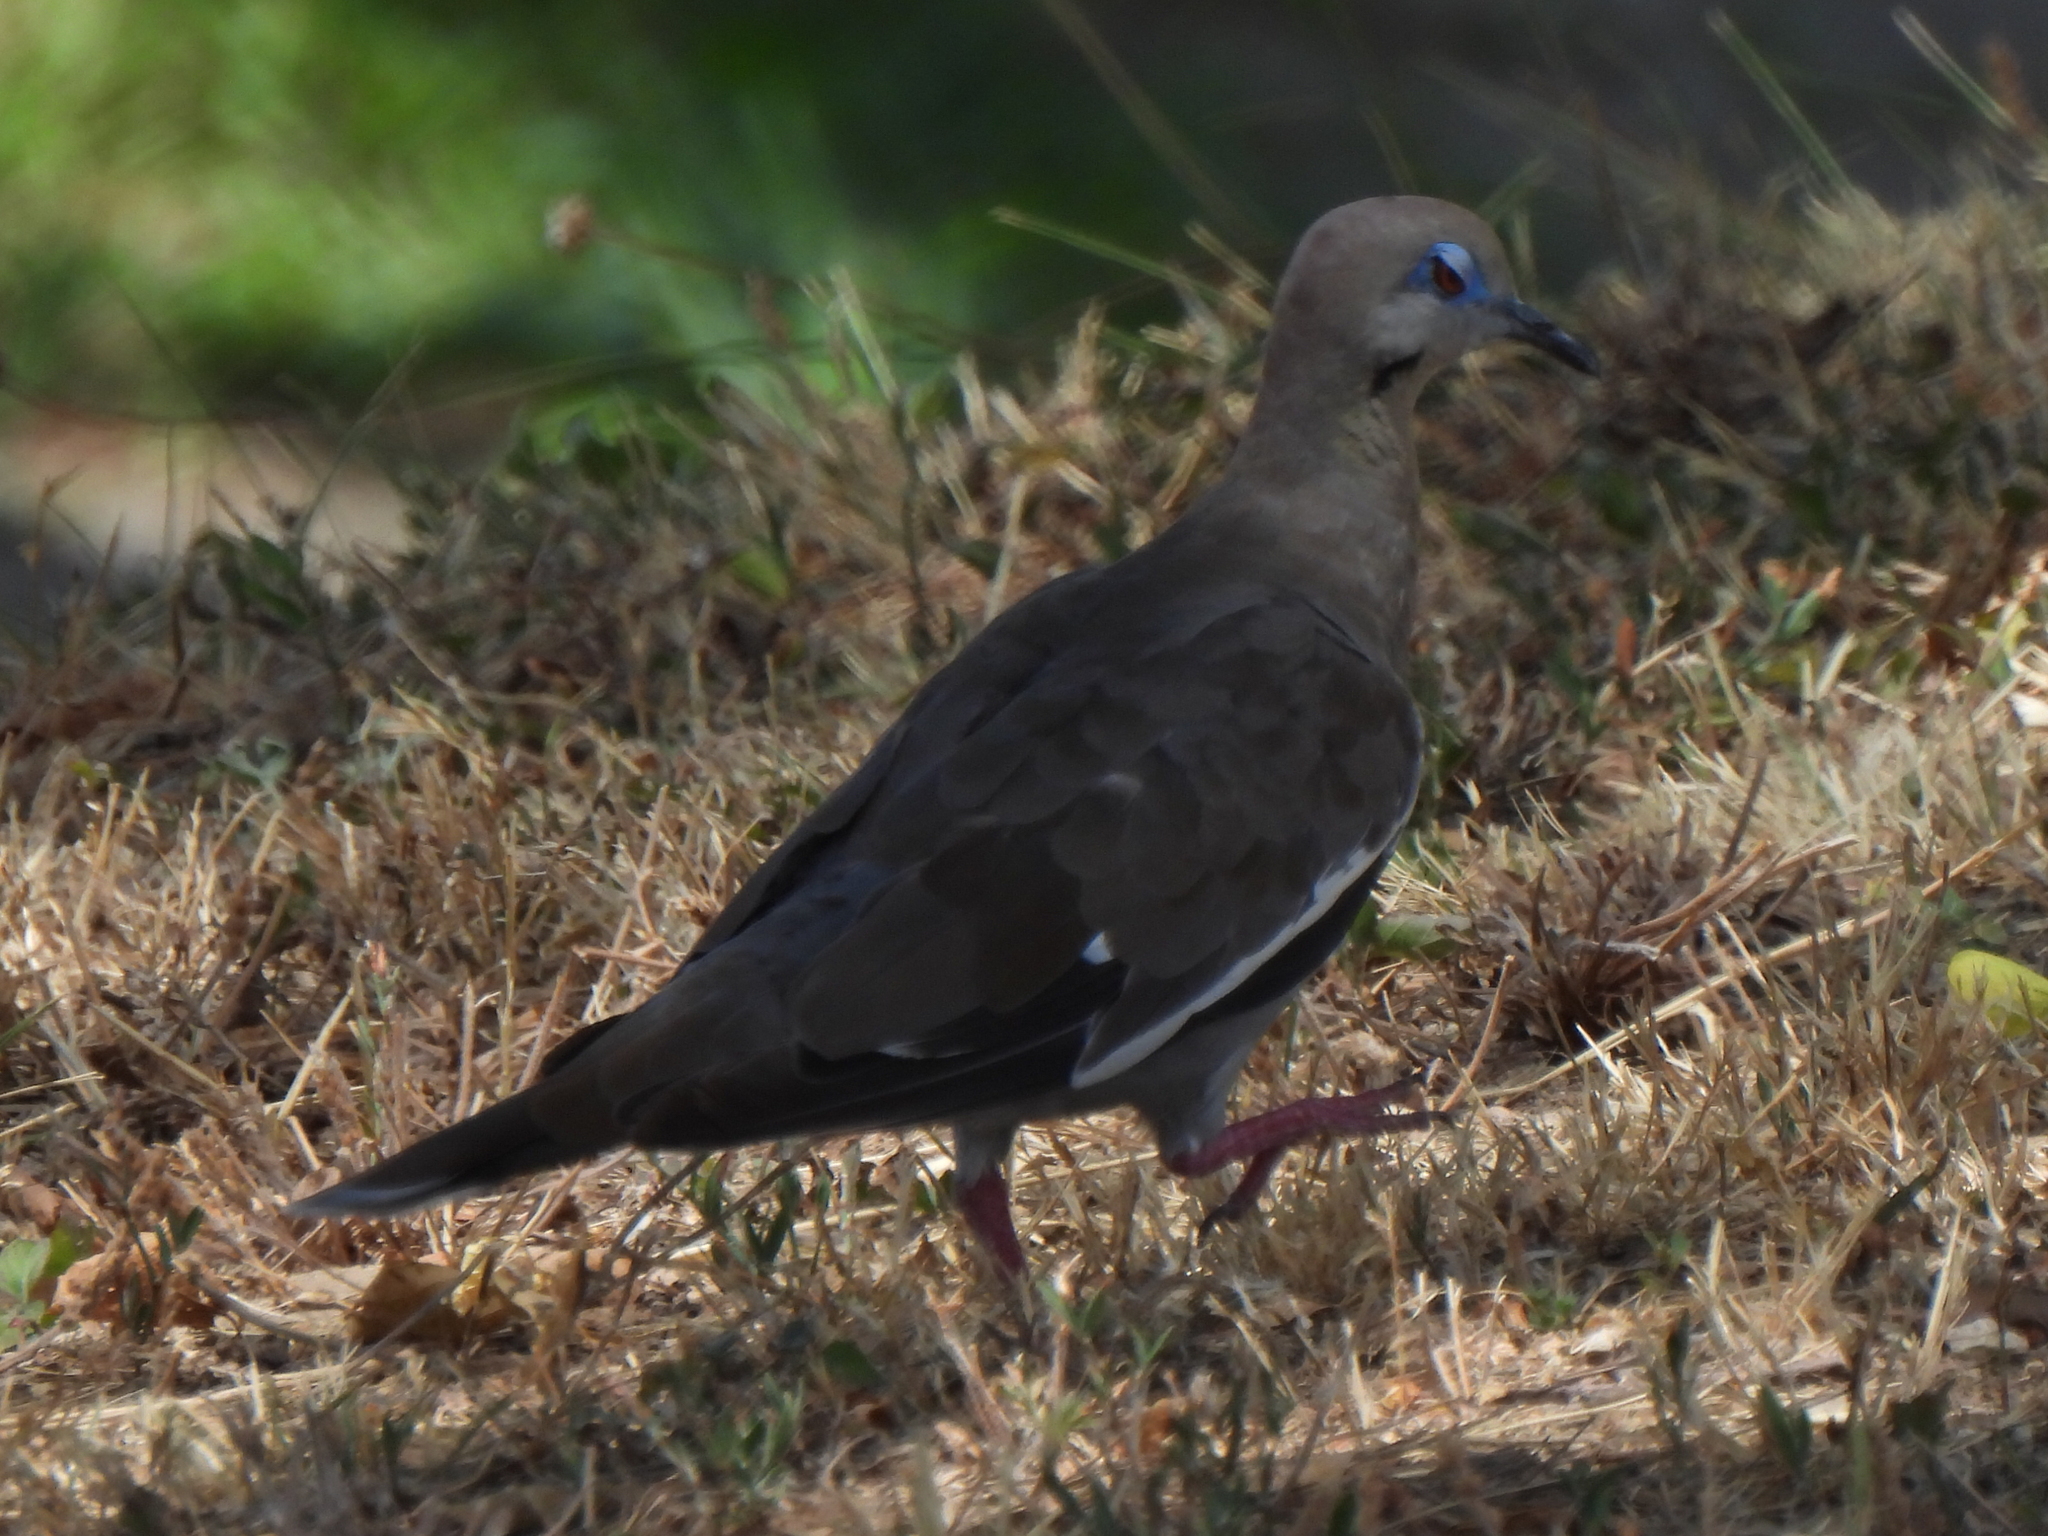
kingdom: Animalia
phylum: Chordata
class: Aves
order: Columbiformes
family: Columbidae
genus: Zenaida
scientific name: Zenaida asiatica
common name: White-winged dove
